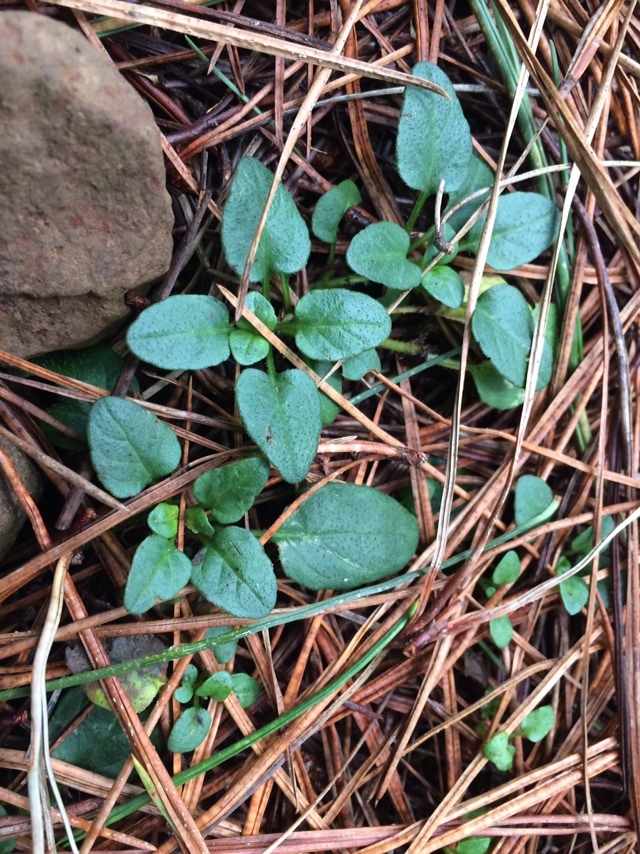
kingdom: Plantae
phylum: Tracheophyta
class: Magnoliopsida
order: Lamiales
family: Lamiaceae
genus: Prunella
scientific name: Prunella vulgaris
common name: Heal-all
